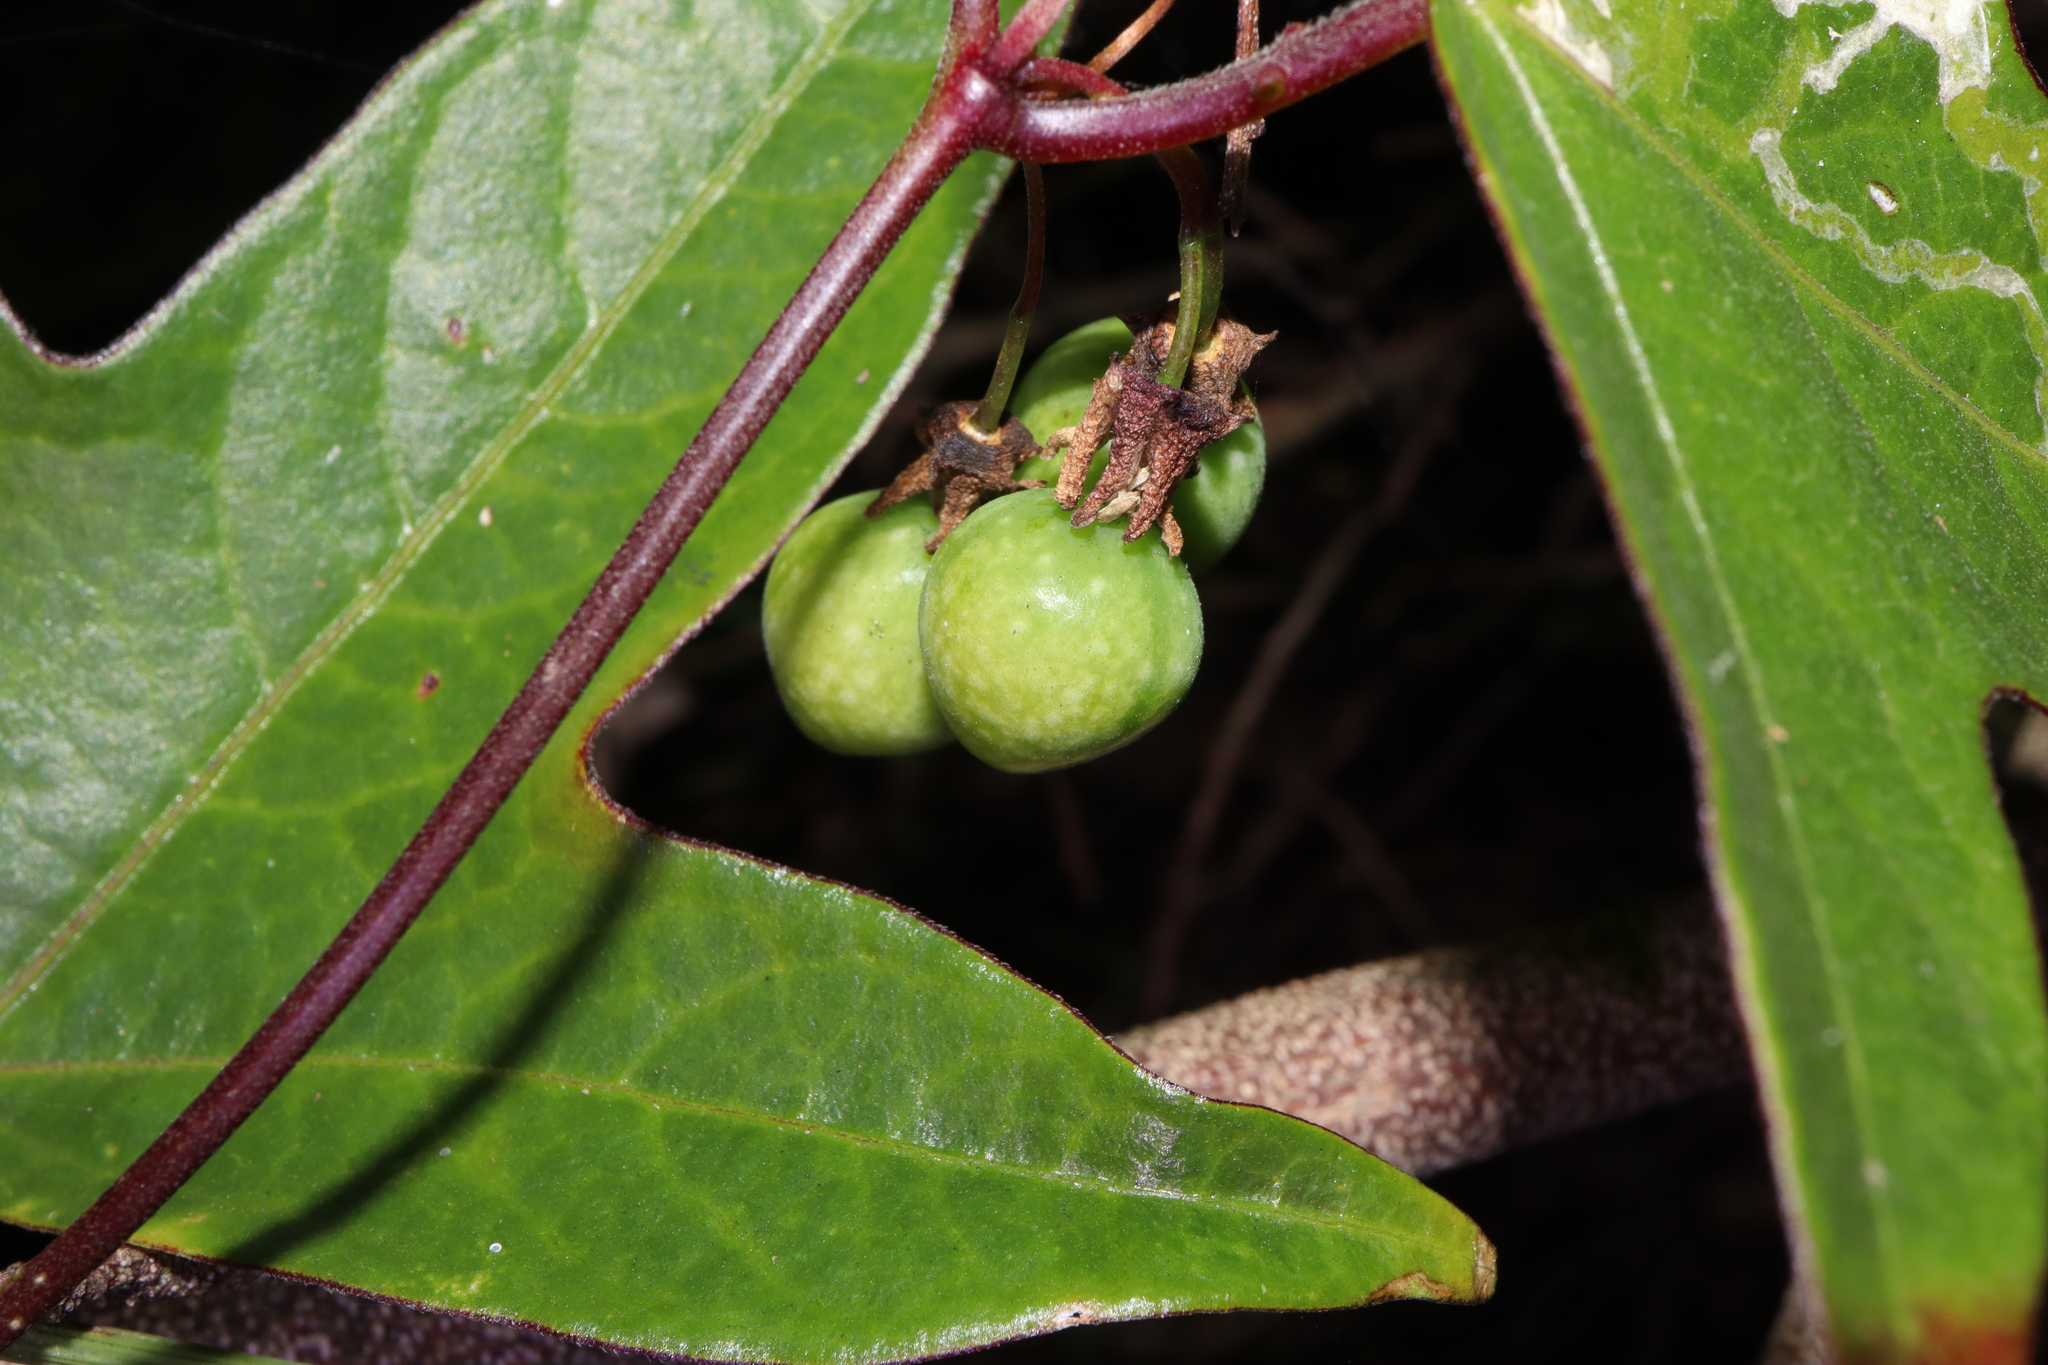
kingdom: Plantae
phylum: Tracheophyta
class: Magnoliopsida
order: Malpighiales
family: Passifloraceae
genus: Passiflora
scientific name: Passiflora suberosa
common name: Wild passionfruit
